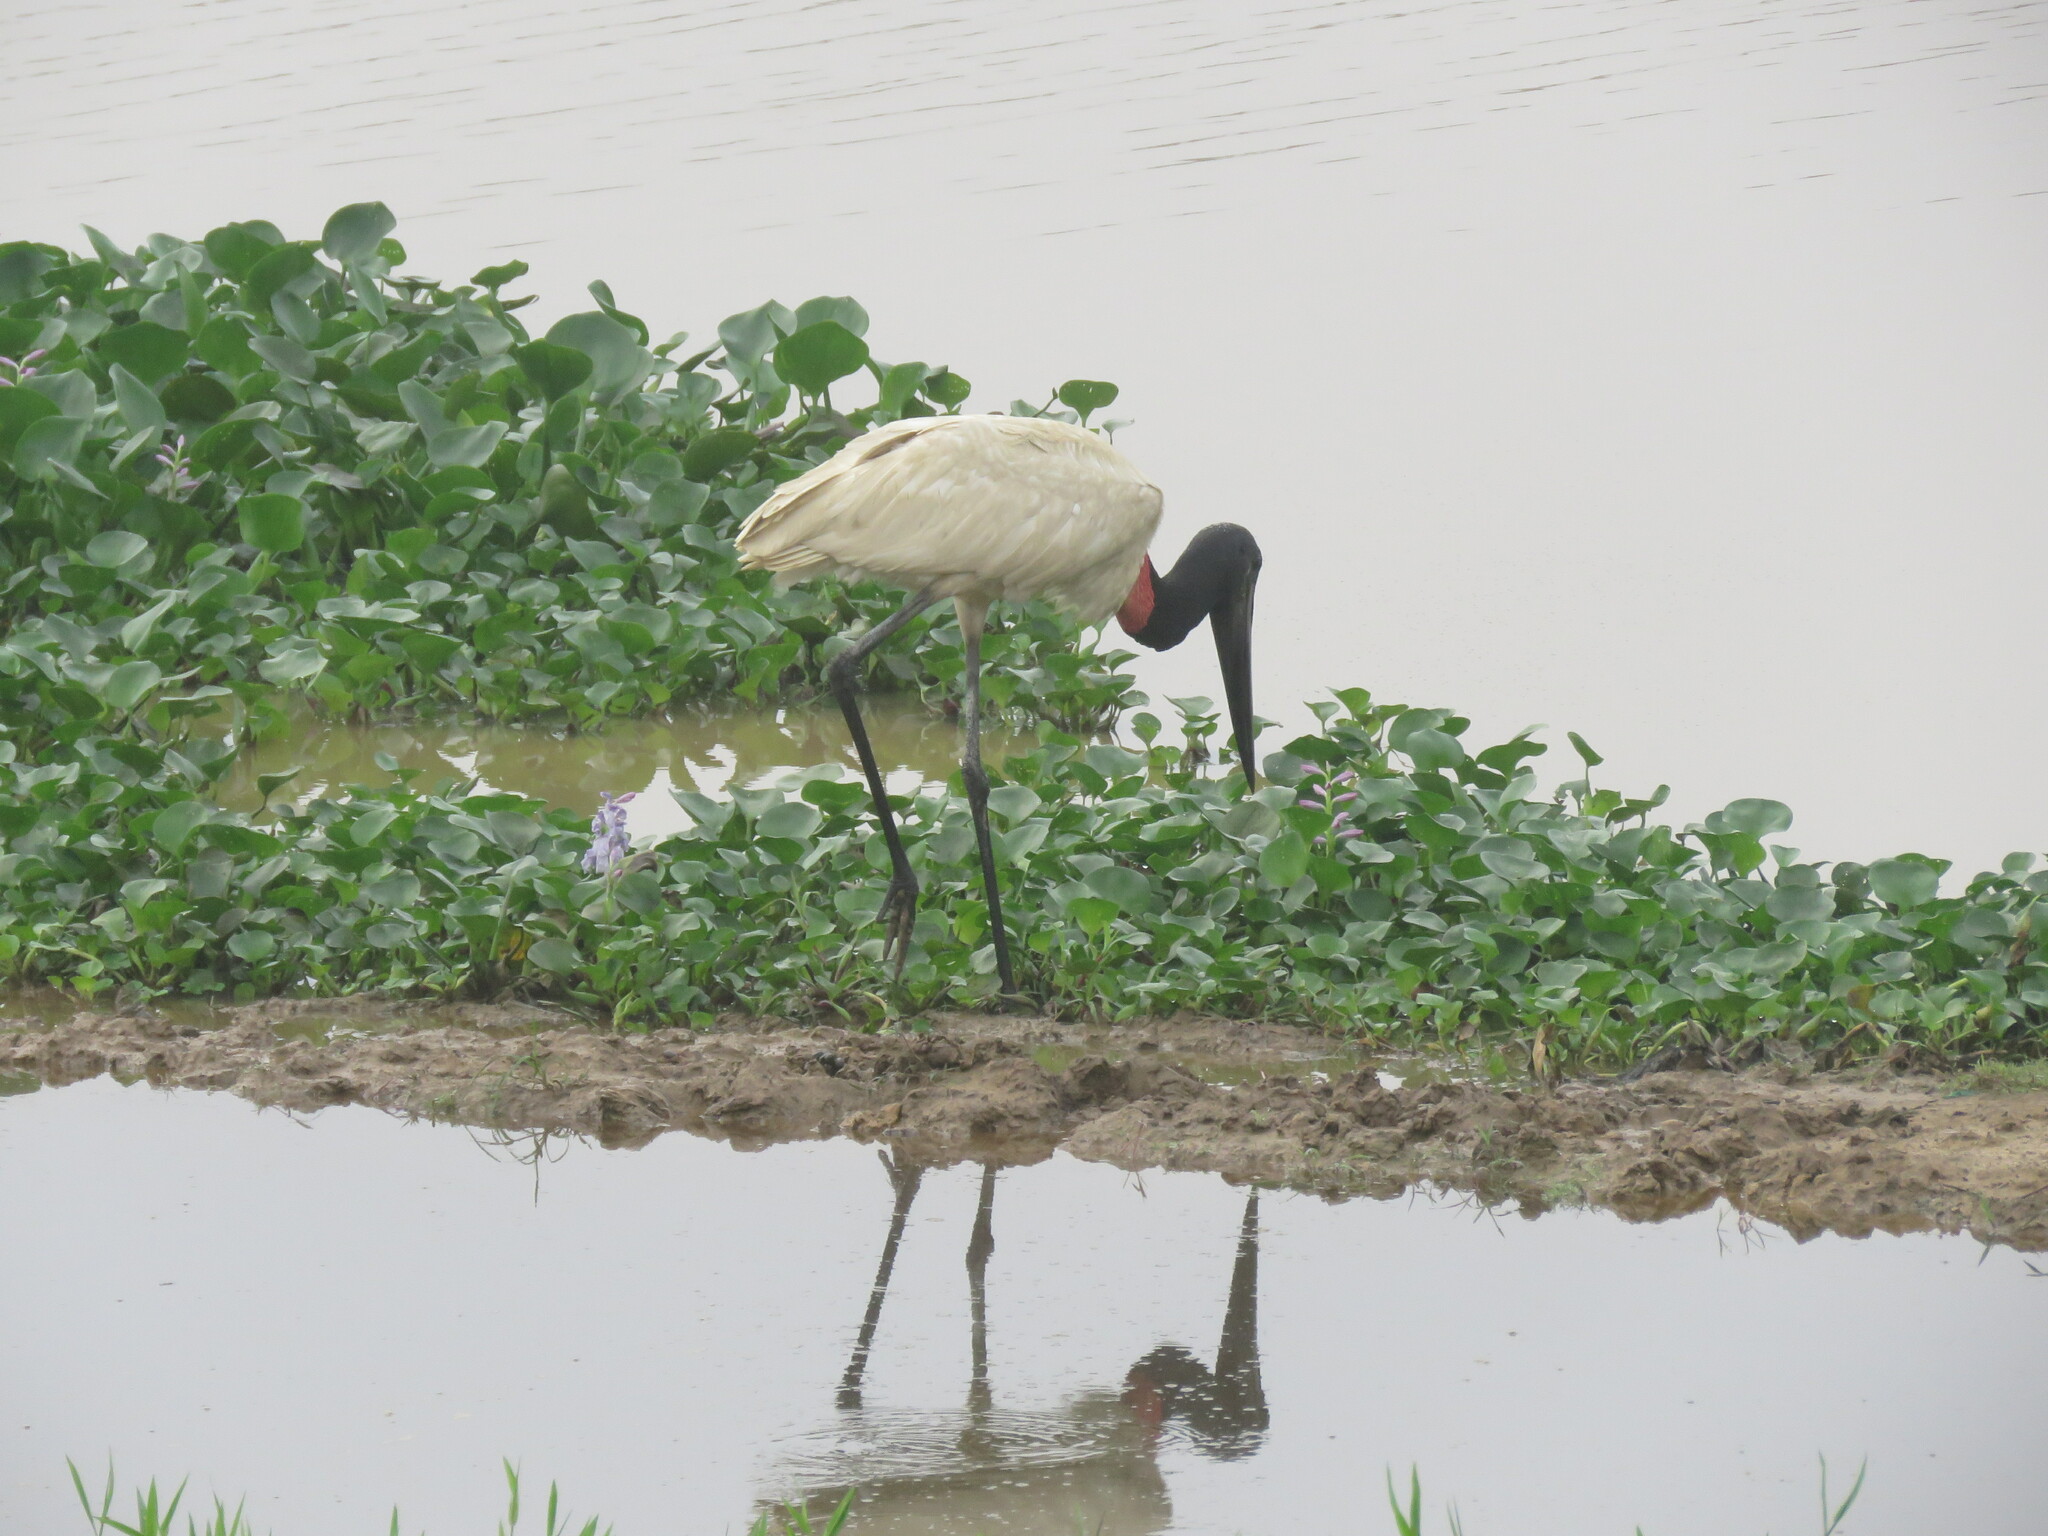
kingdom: Animalia
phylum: Chordata
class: Aves
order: Ciconiiformes
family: Ciconiidae
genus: Jabiru
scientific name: Jabiru mycteria
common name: Jabiru
